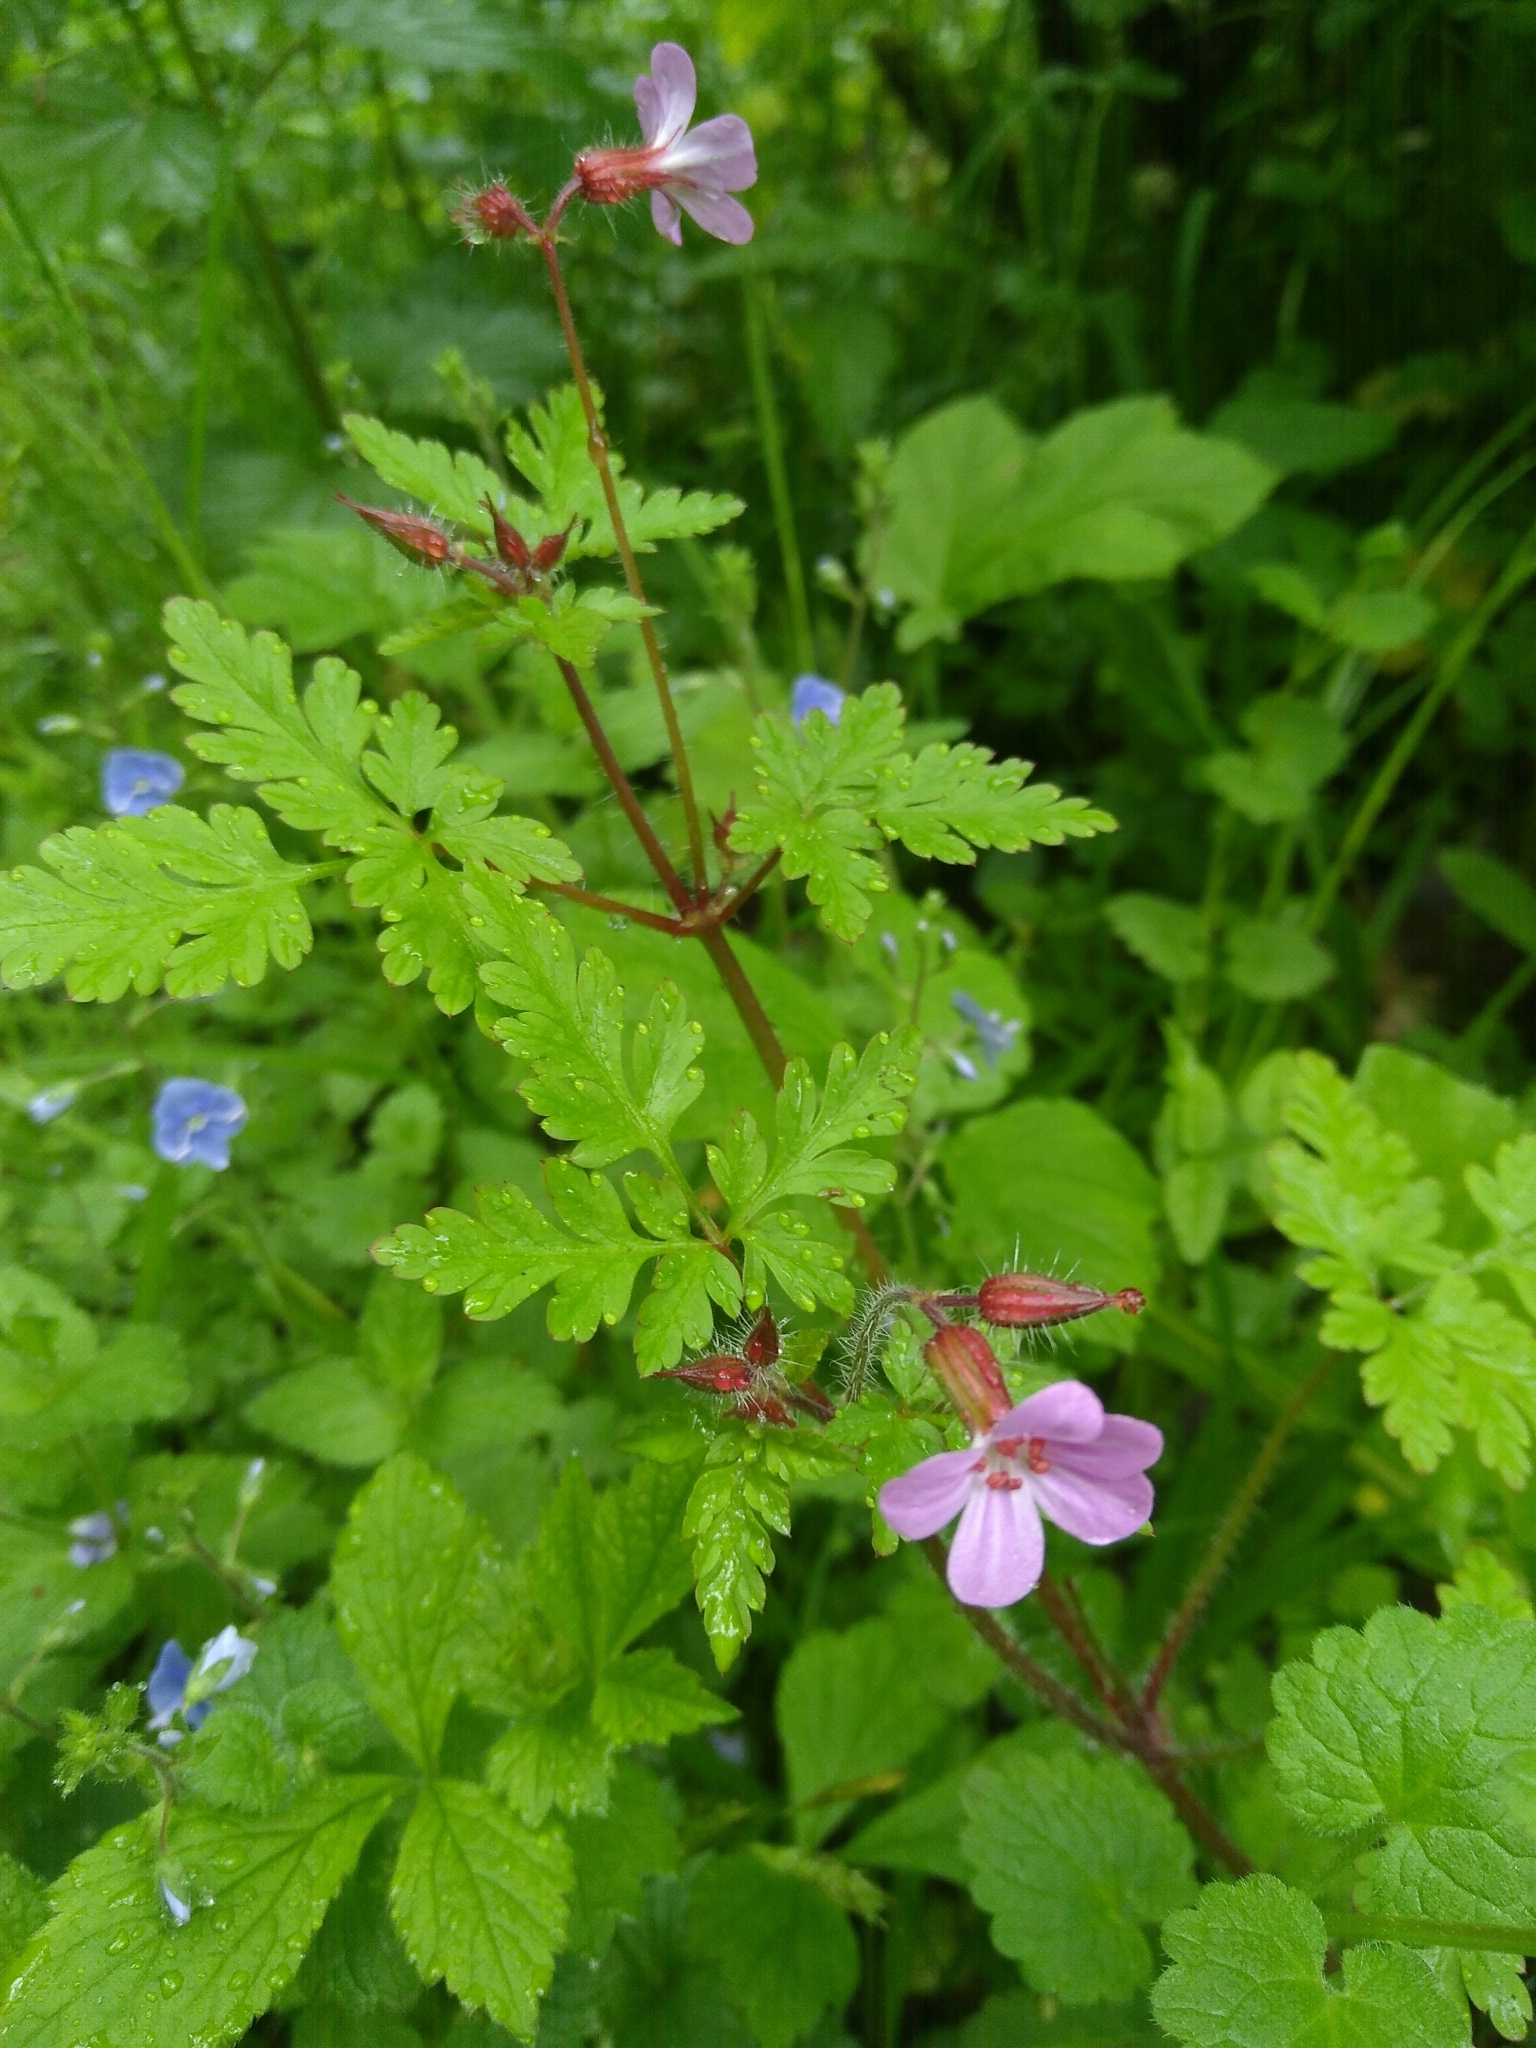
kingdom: Plantae
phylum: Tracheophyta
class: Magnoliopsida
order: Geraniales
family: Geraniaceae
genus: Geranium
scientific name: Geranium robertianum
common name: Herb-robert
